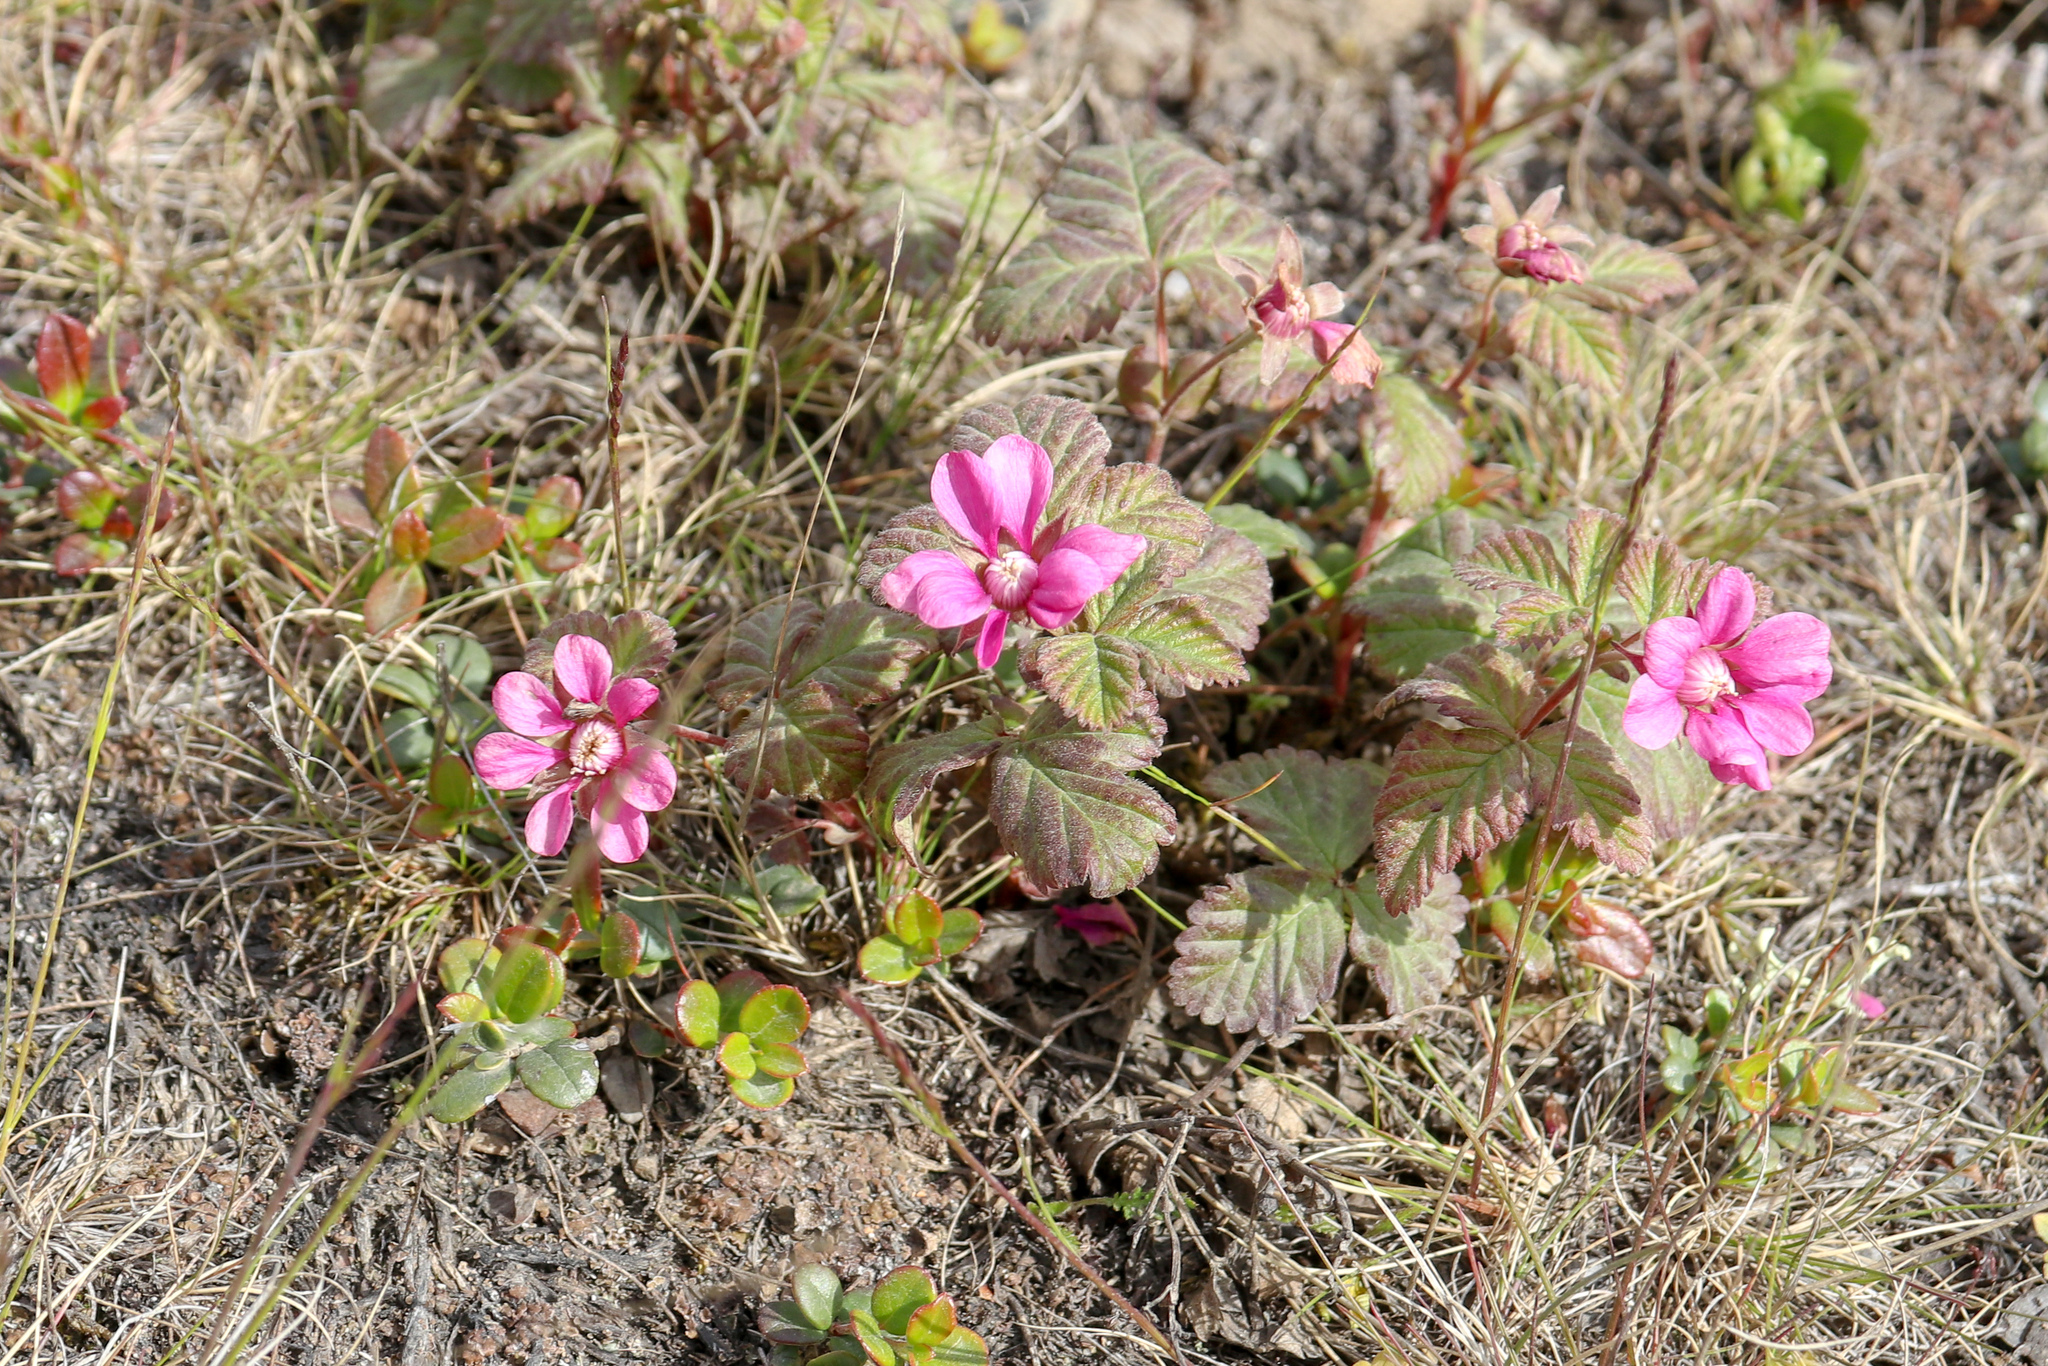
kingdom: Plantae
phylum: Tracheophyta
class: Magnoliopsida
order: Rosales
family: Rosaceae
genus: Rubus
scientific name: Rubus arcticus
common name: Arctic bramble
